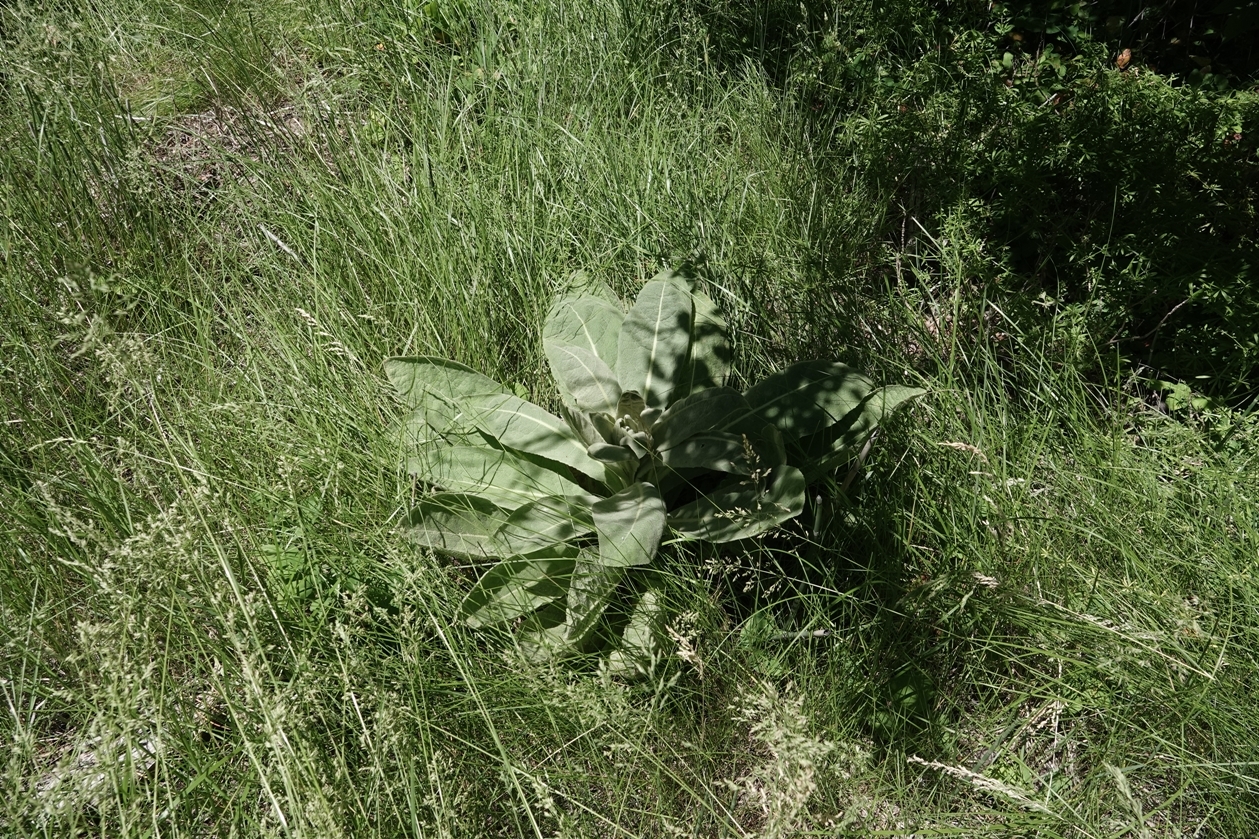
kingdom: Plantae
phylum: Tracheophyta
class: Magnoliopsida
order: Lamiales
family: Scrophulariaceae
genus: Verbascum
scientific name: Verbascum thapsus
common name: Common mullein
